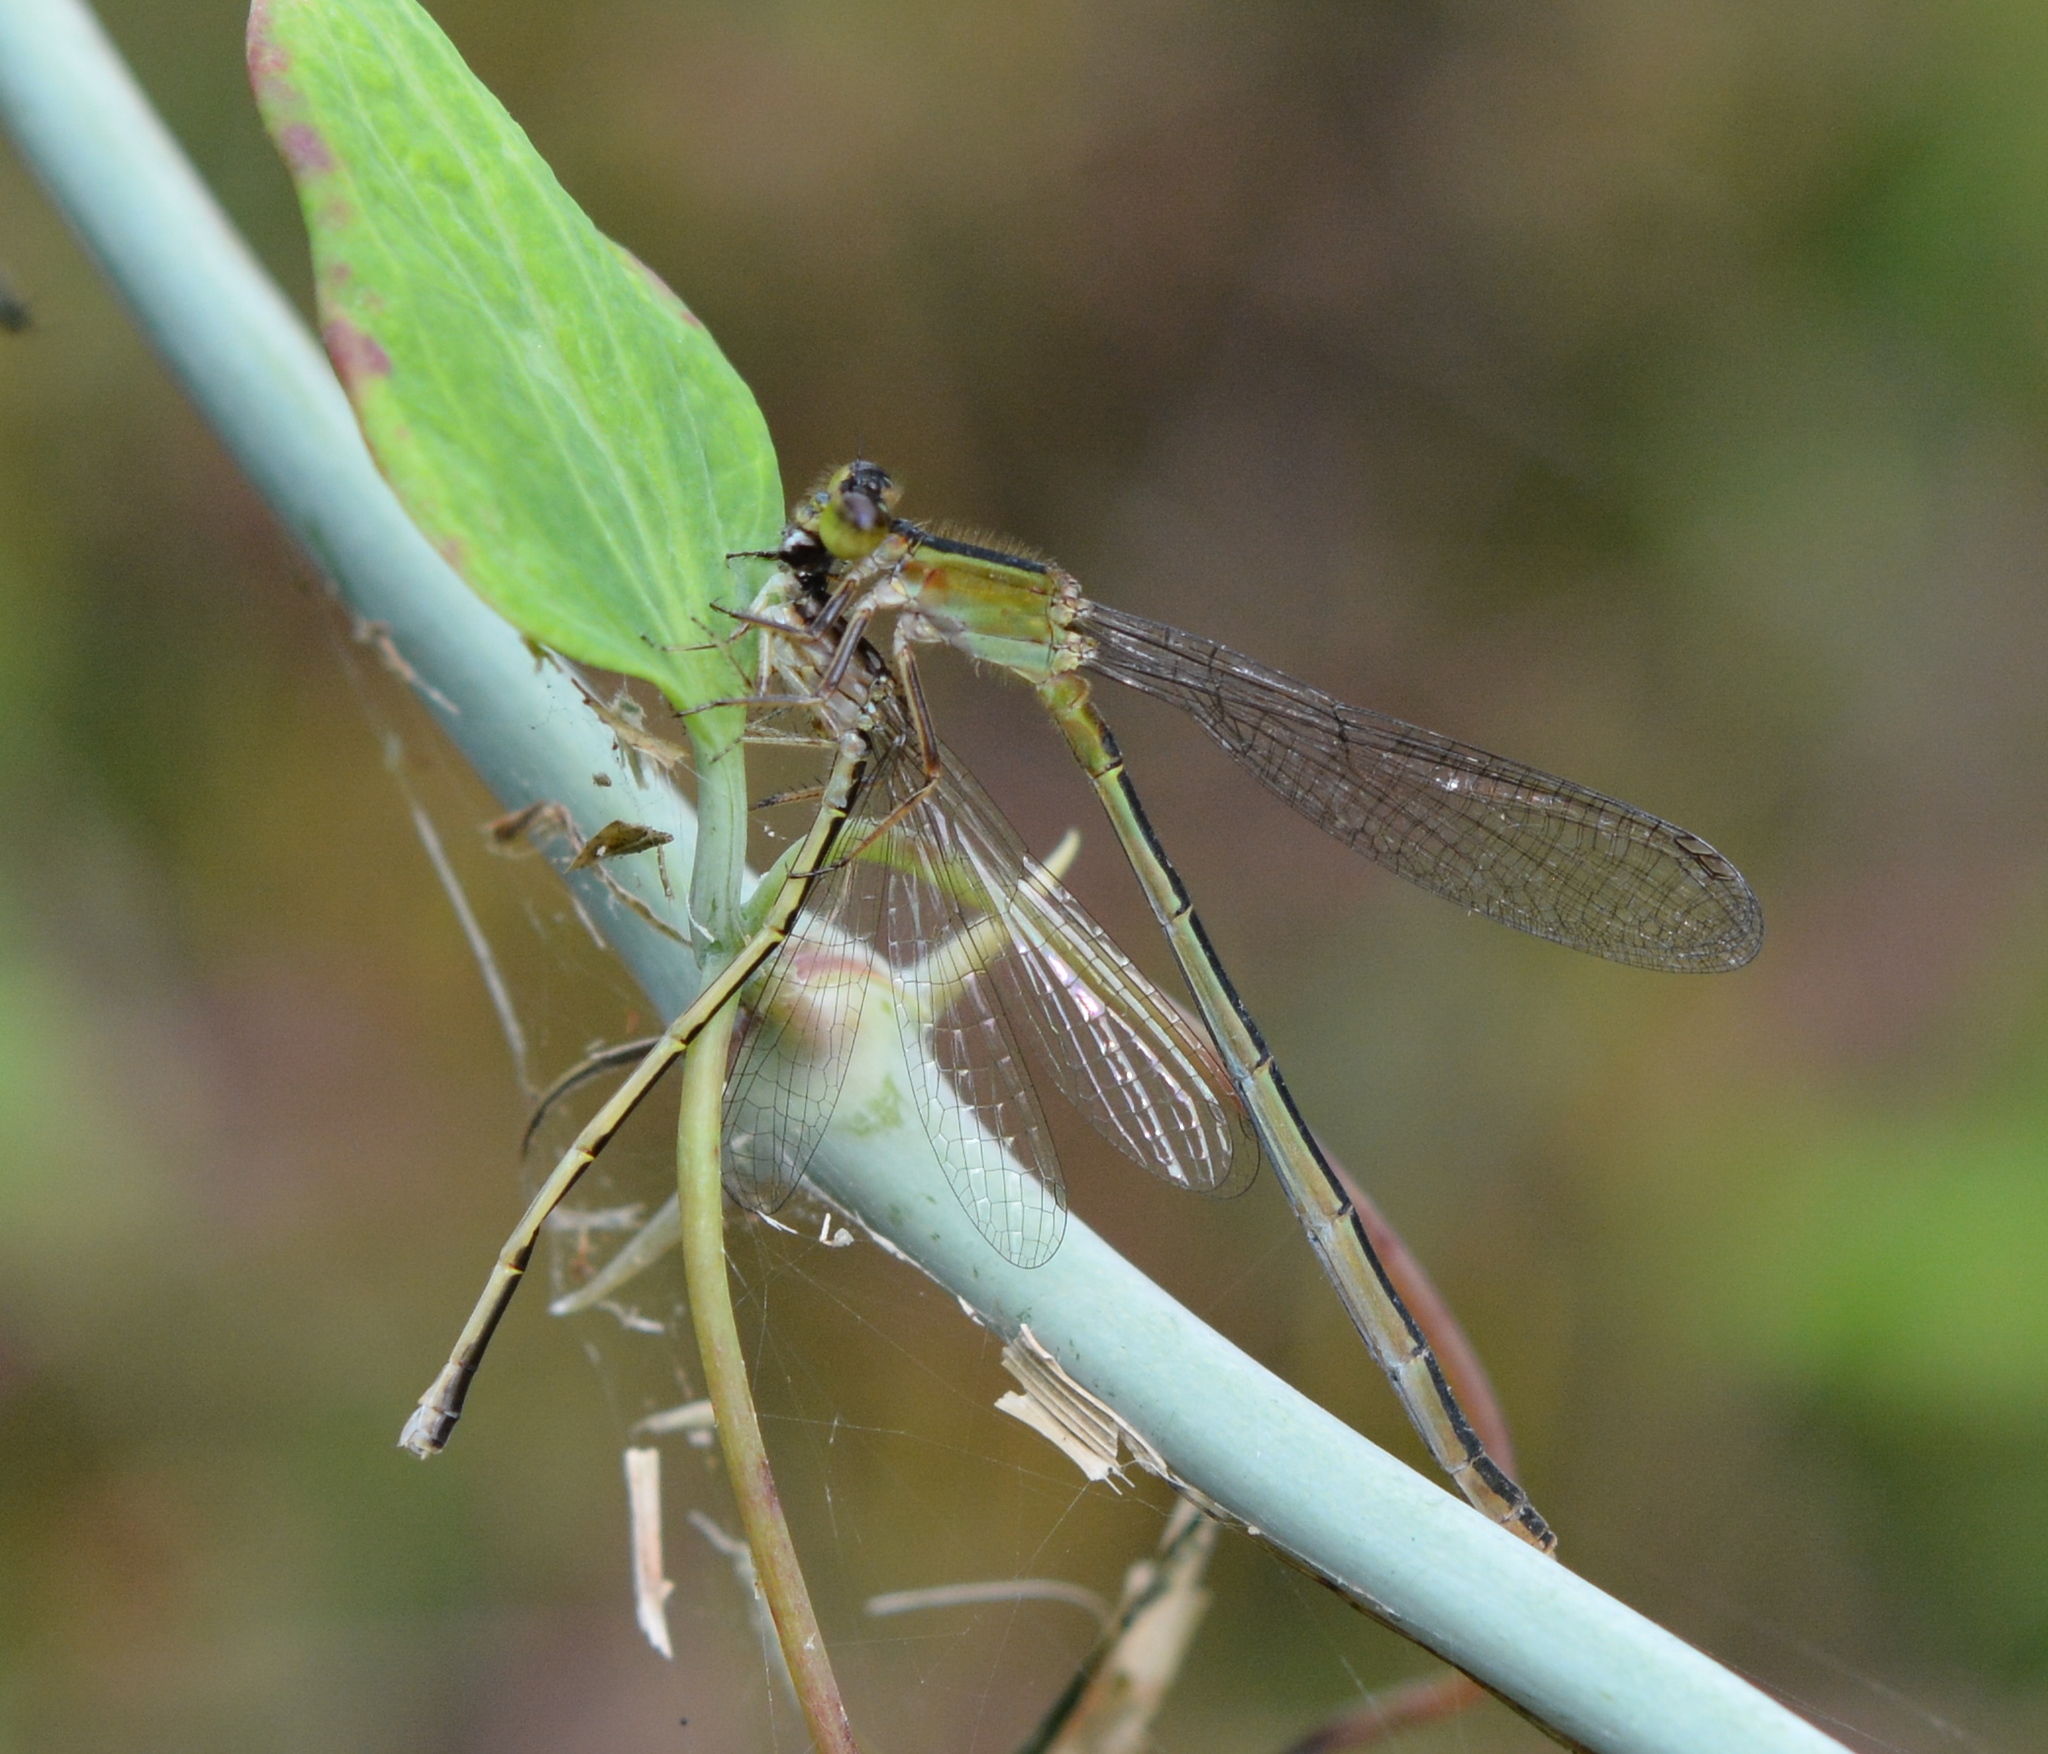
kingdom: Animalia
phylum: Arthropoda
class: Insecta
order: Odonata
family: Coenagrionidae
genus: Ischnura
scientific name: Ischnura ramburii
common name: Rambur's forktail
